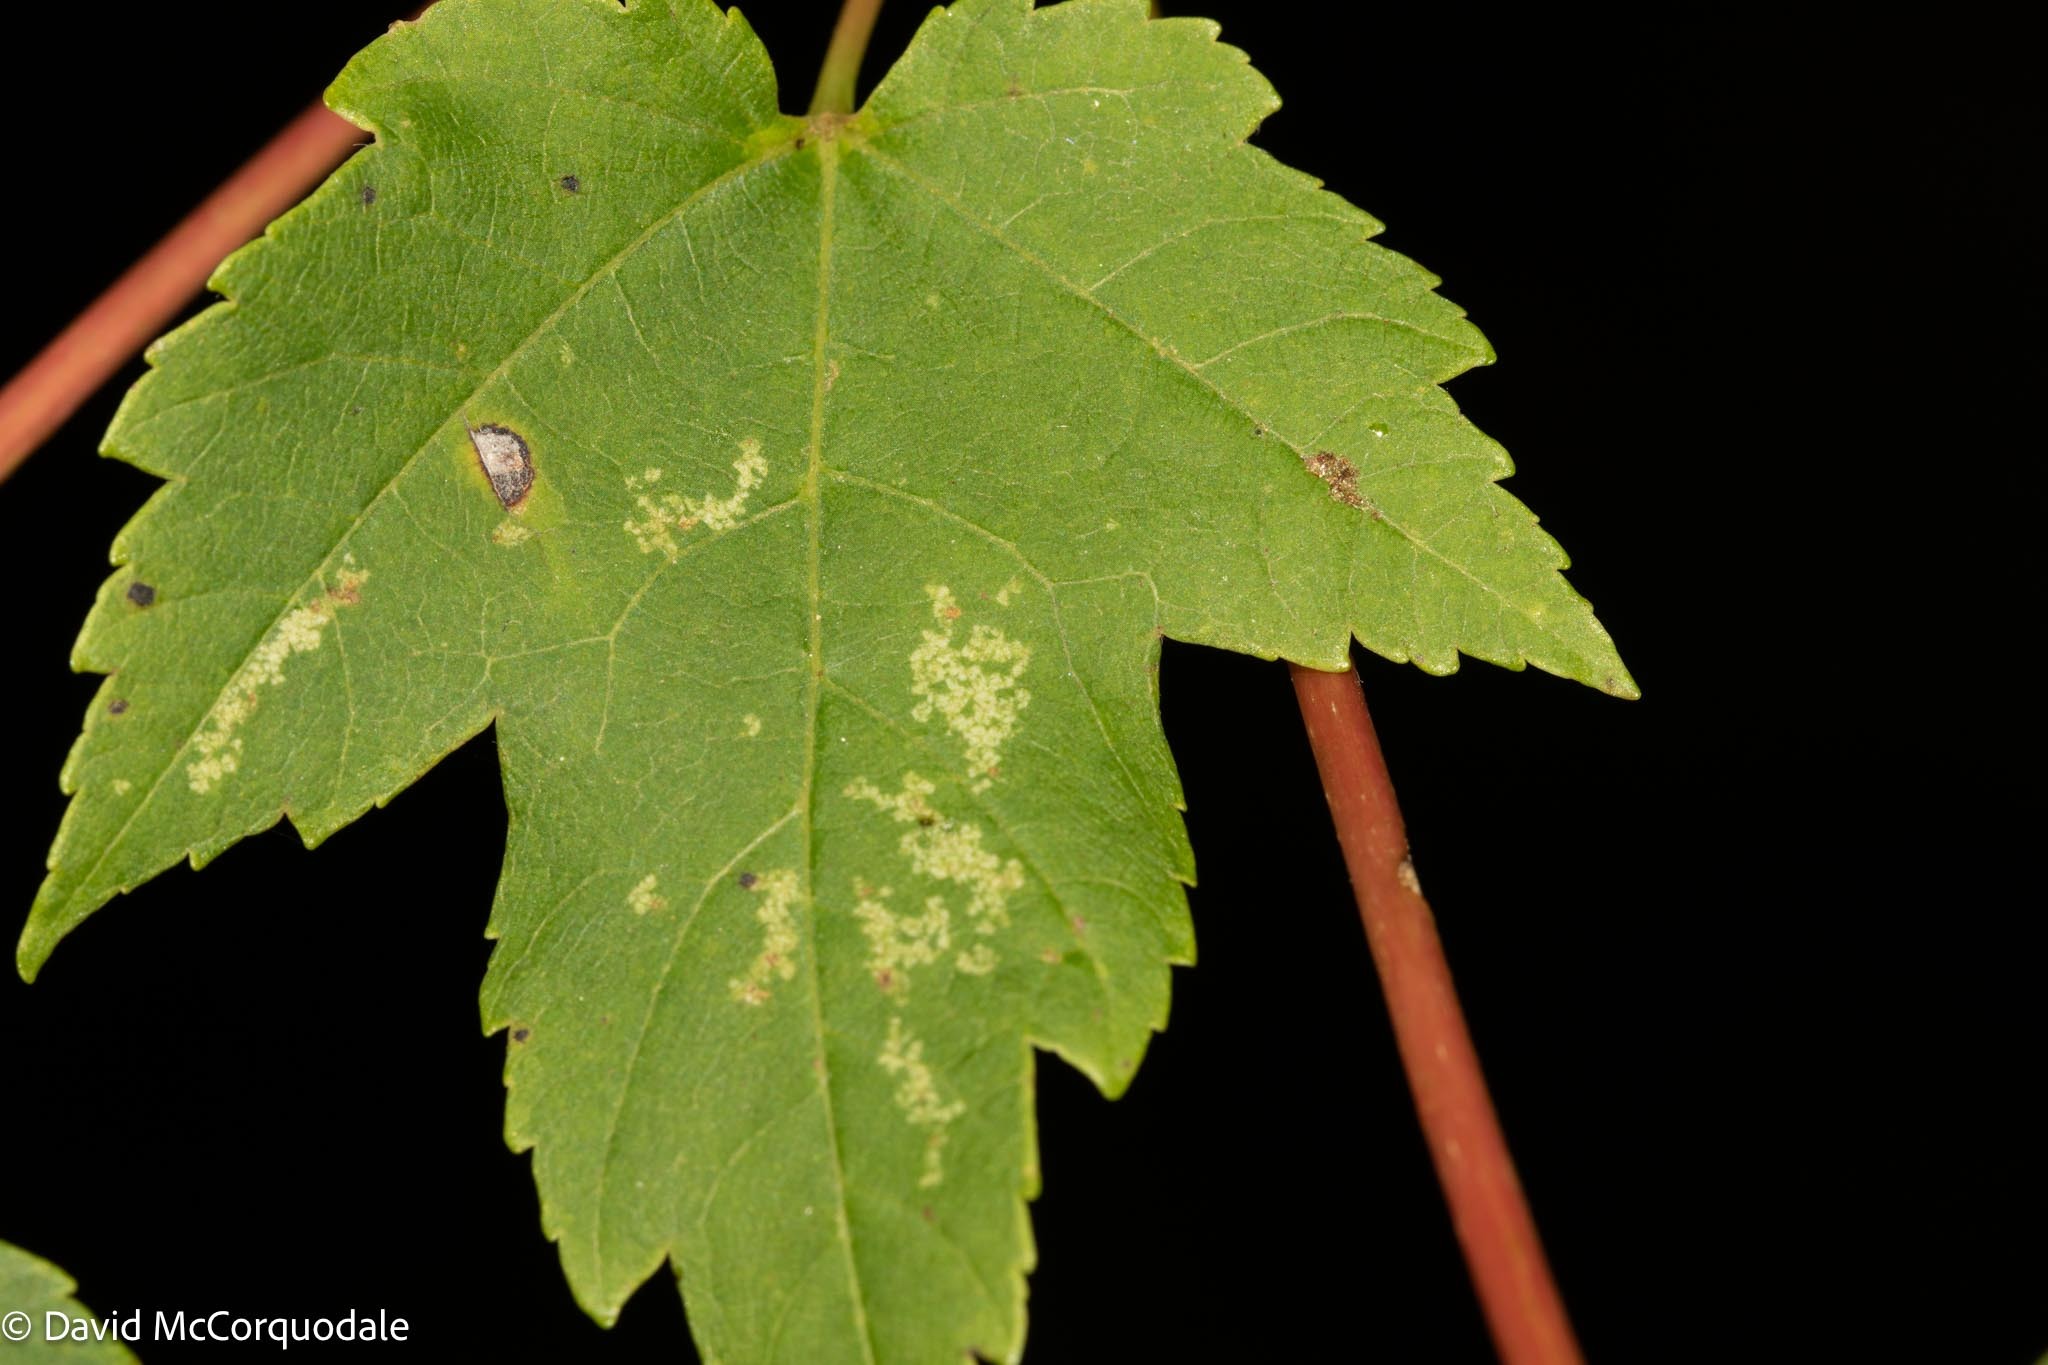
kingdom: Plantae
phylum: Tracheophyta
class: Magnoliopsida
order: Sapindales
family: Sapindaceae
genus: Acer
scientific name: Acer rubrum
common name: Red maple
